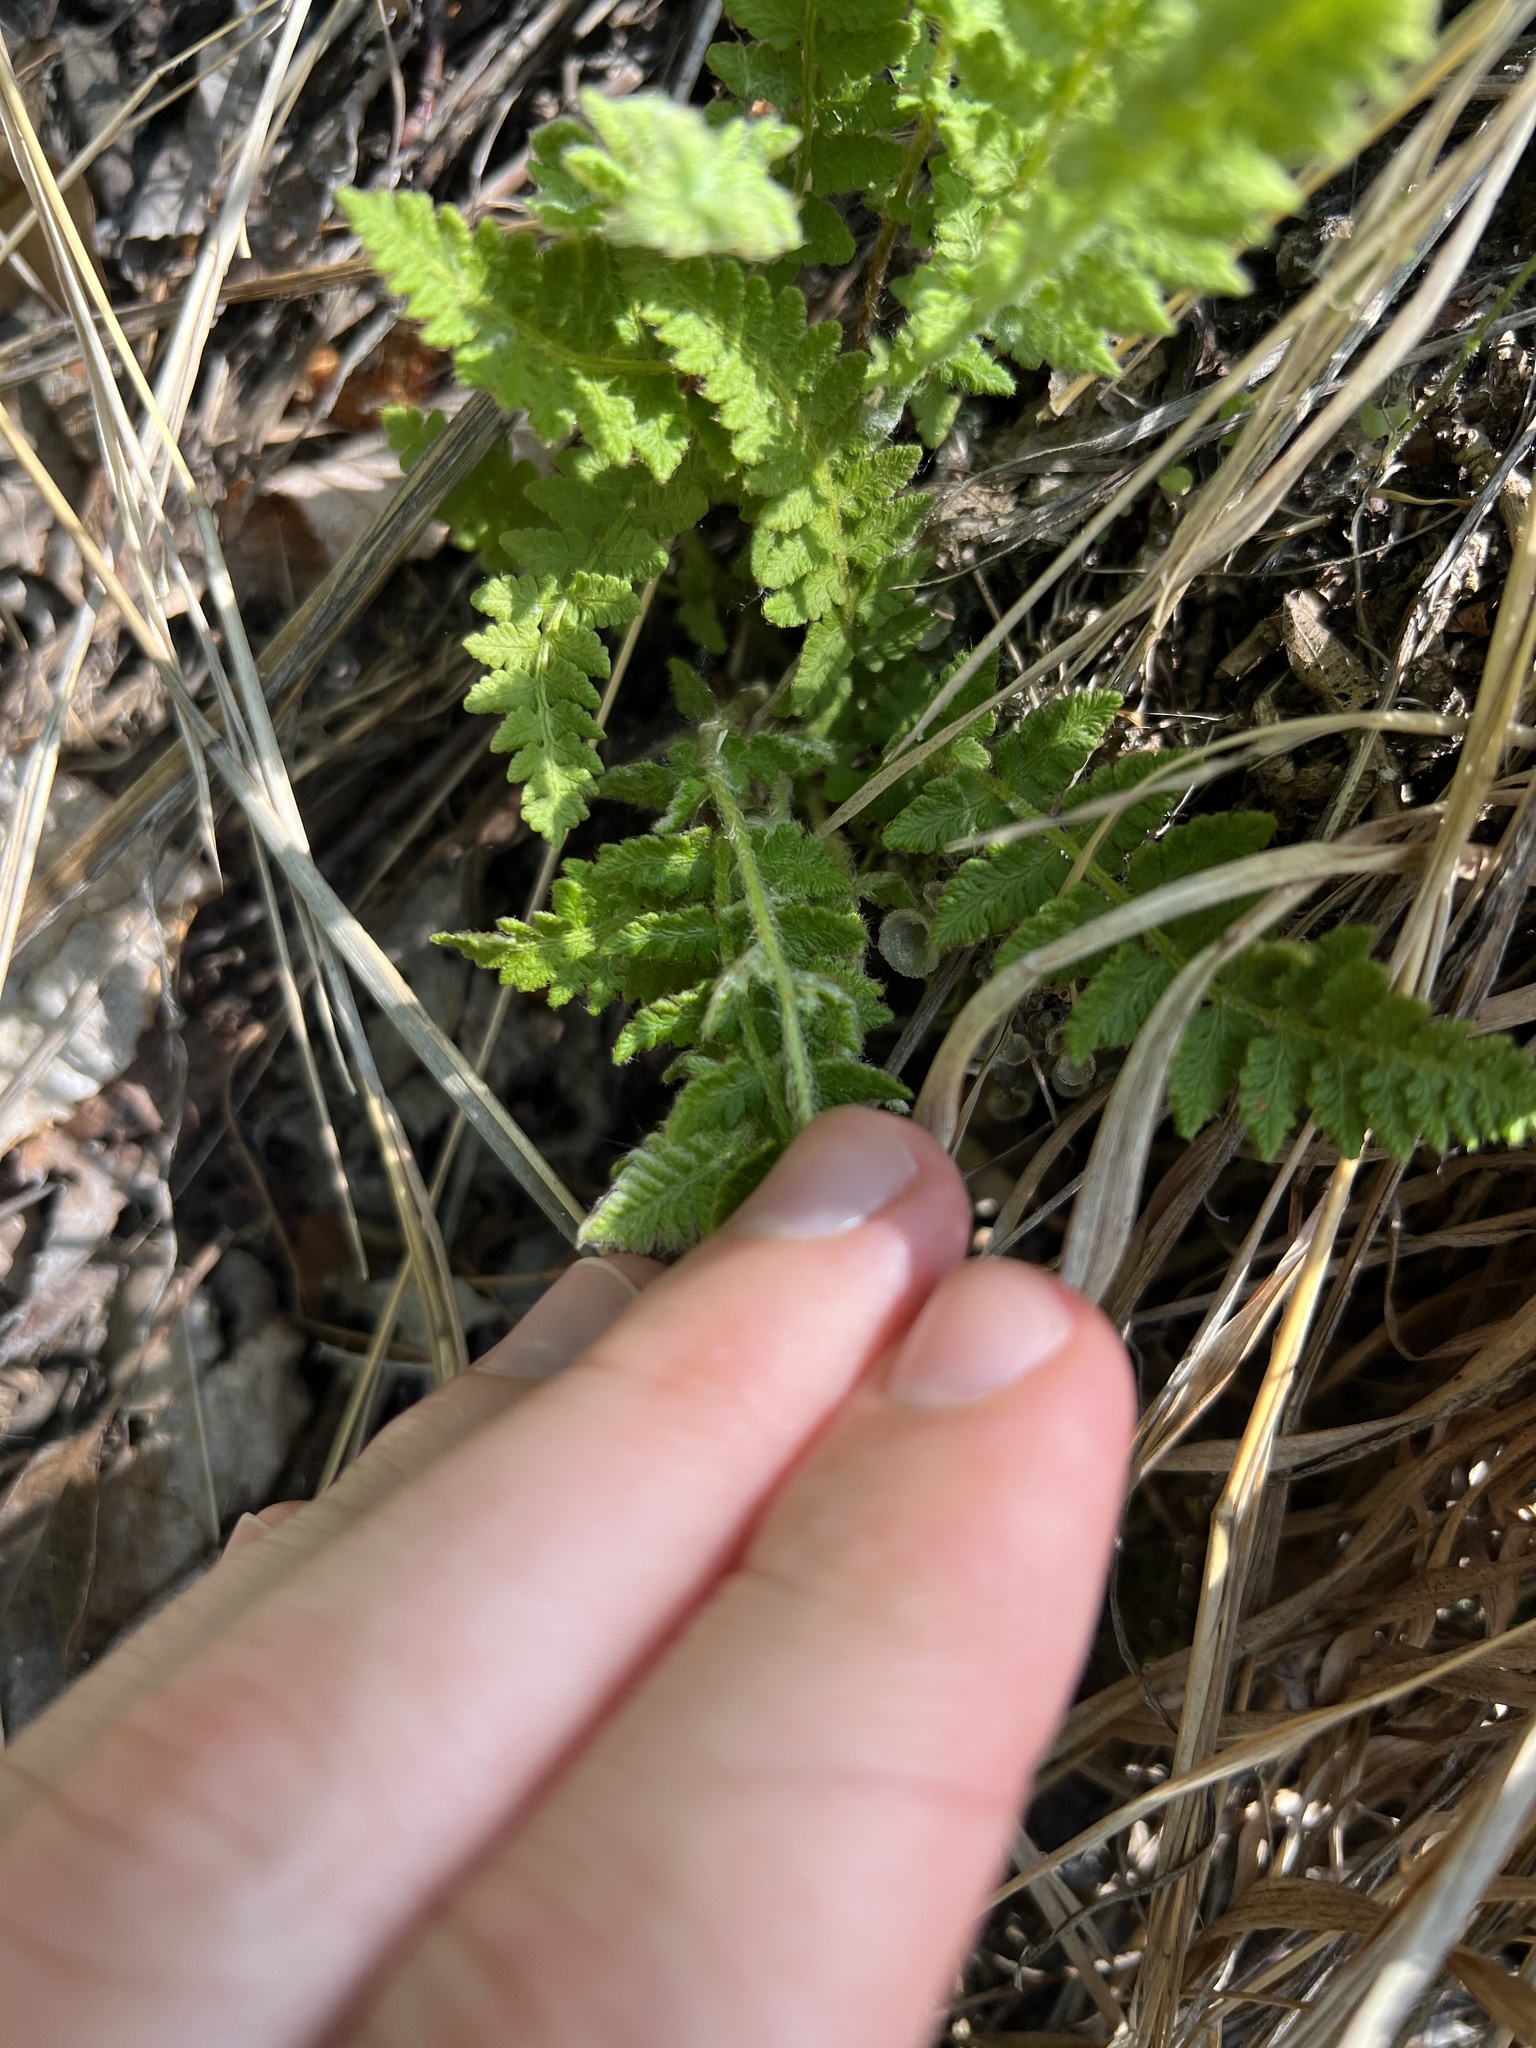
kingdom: Plantae
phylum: Tracheophyta
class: Polypodiopsida
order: Polypodiales
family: Woodsiaceae
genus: Woodsia
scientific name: Woodsia ilvensis
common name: Fragrant woodsia
